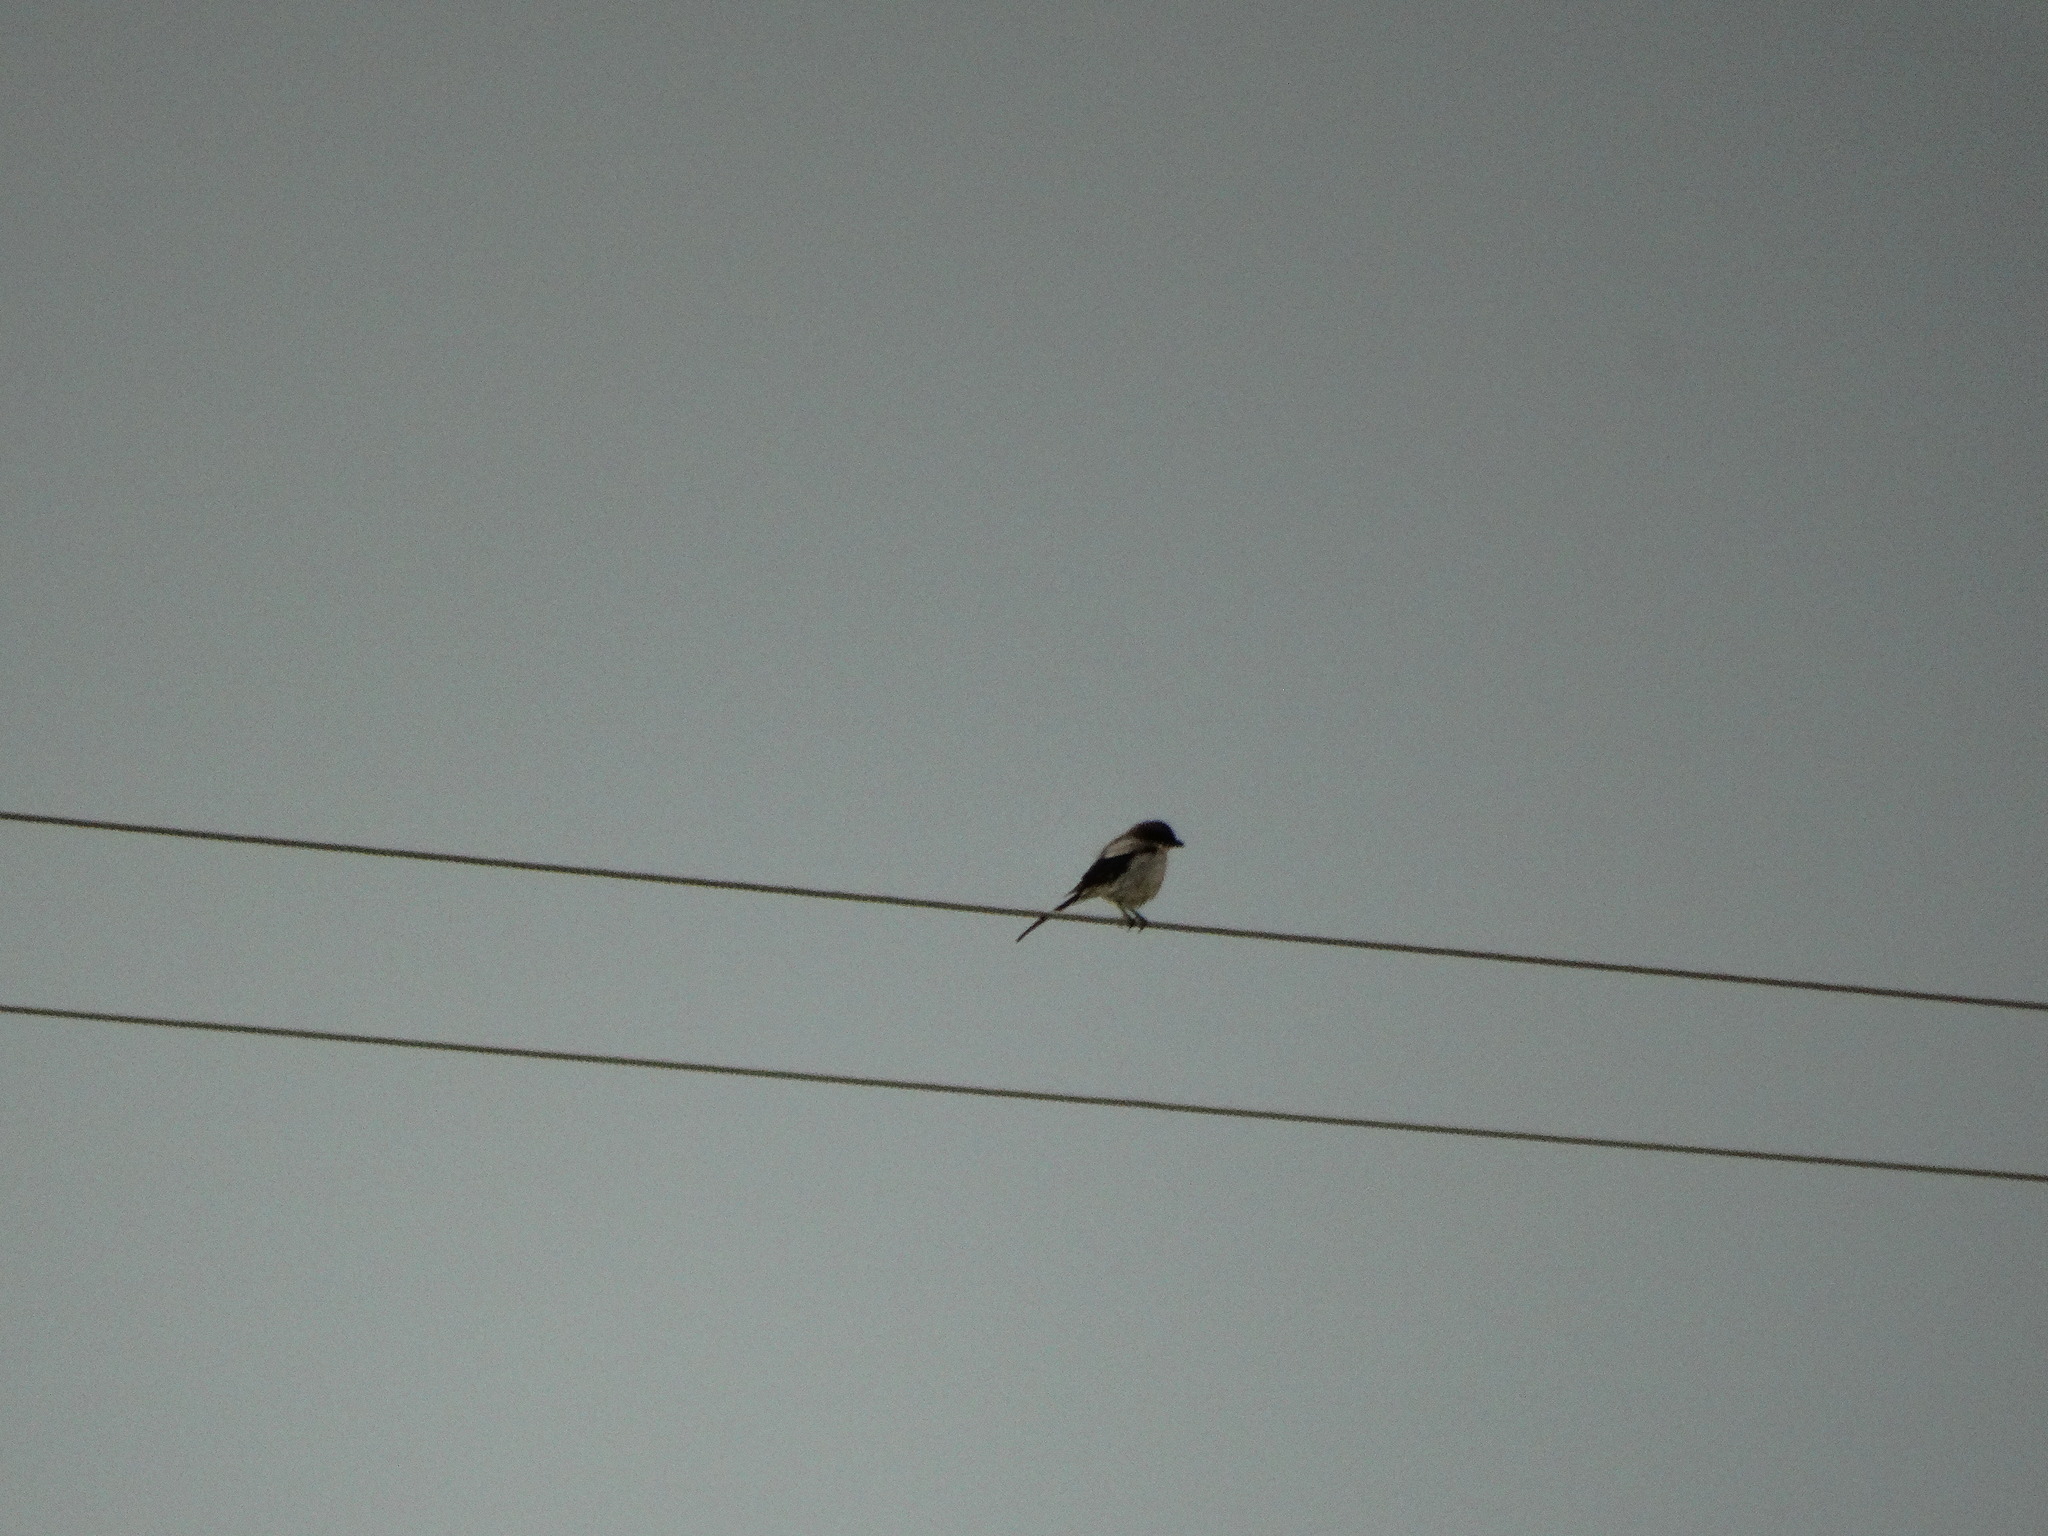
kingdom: Animalia
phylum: Chordata
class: Aves
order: Passeriformes
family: Laniidae
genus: Lanius
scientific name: Lanius ludovicianus
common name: Loggerhead shrike
